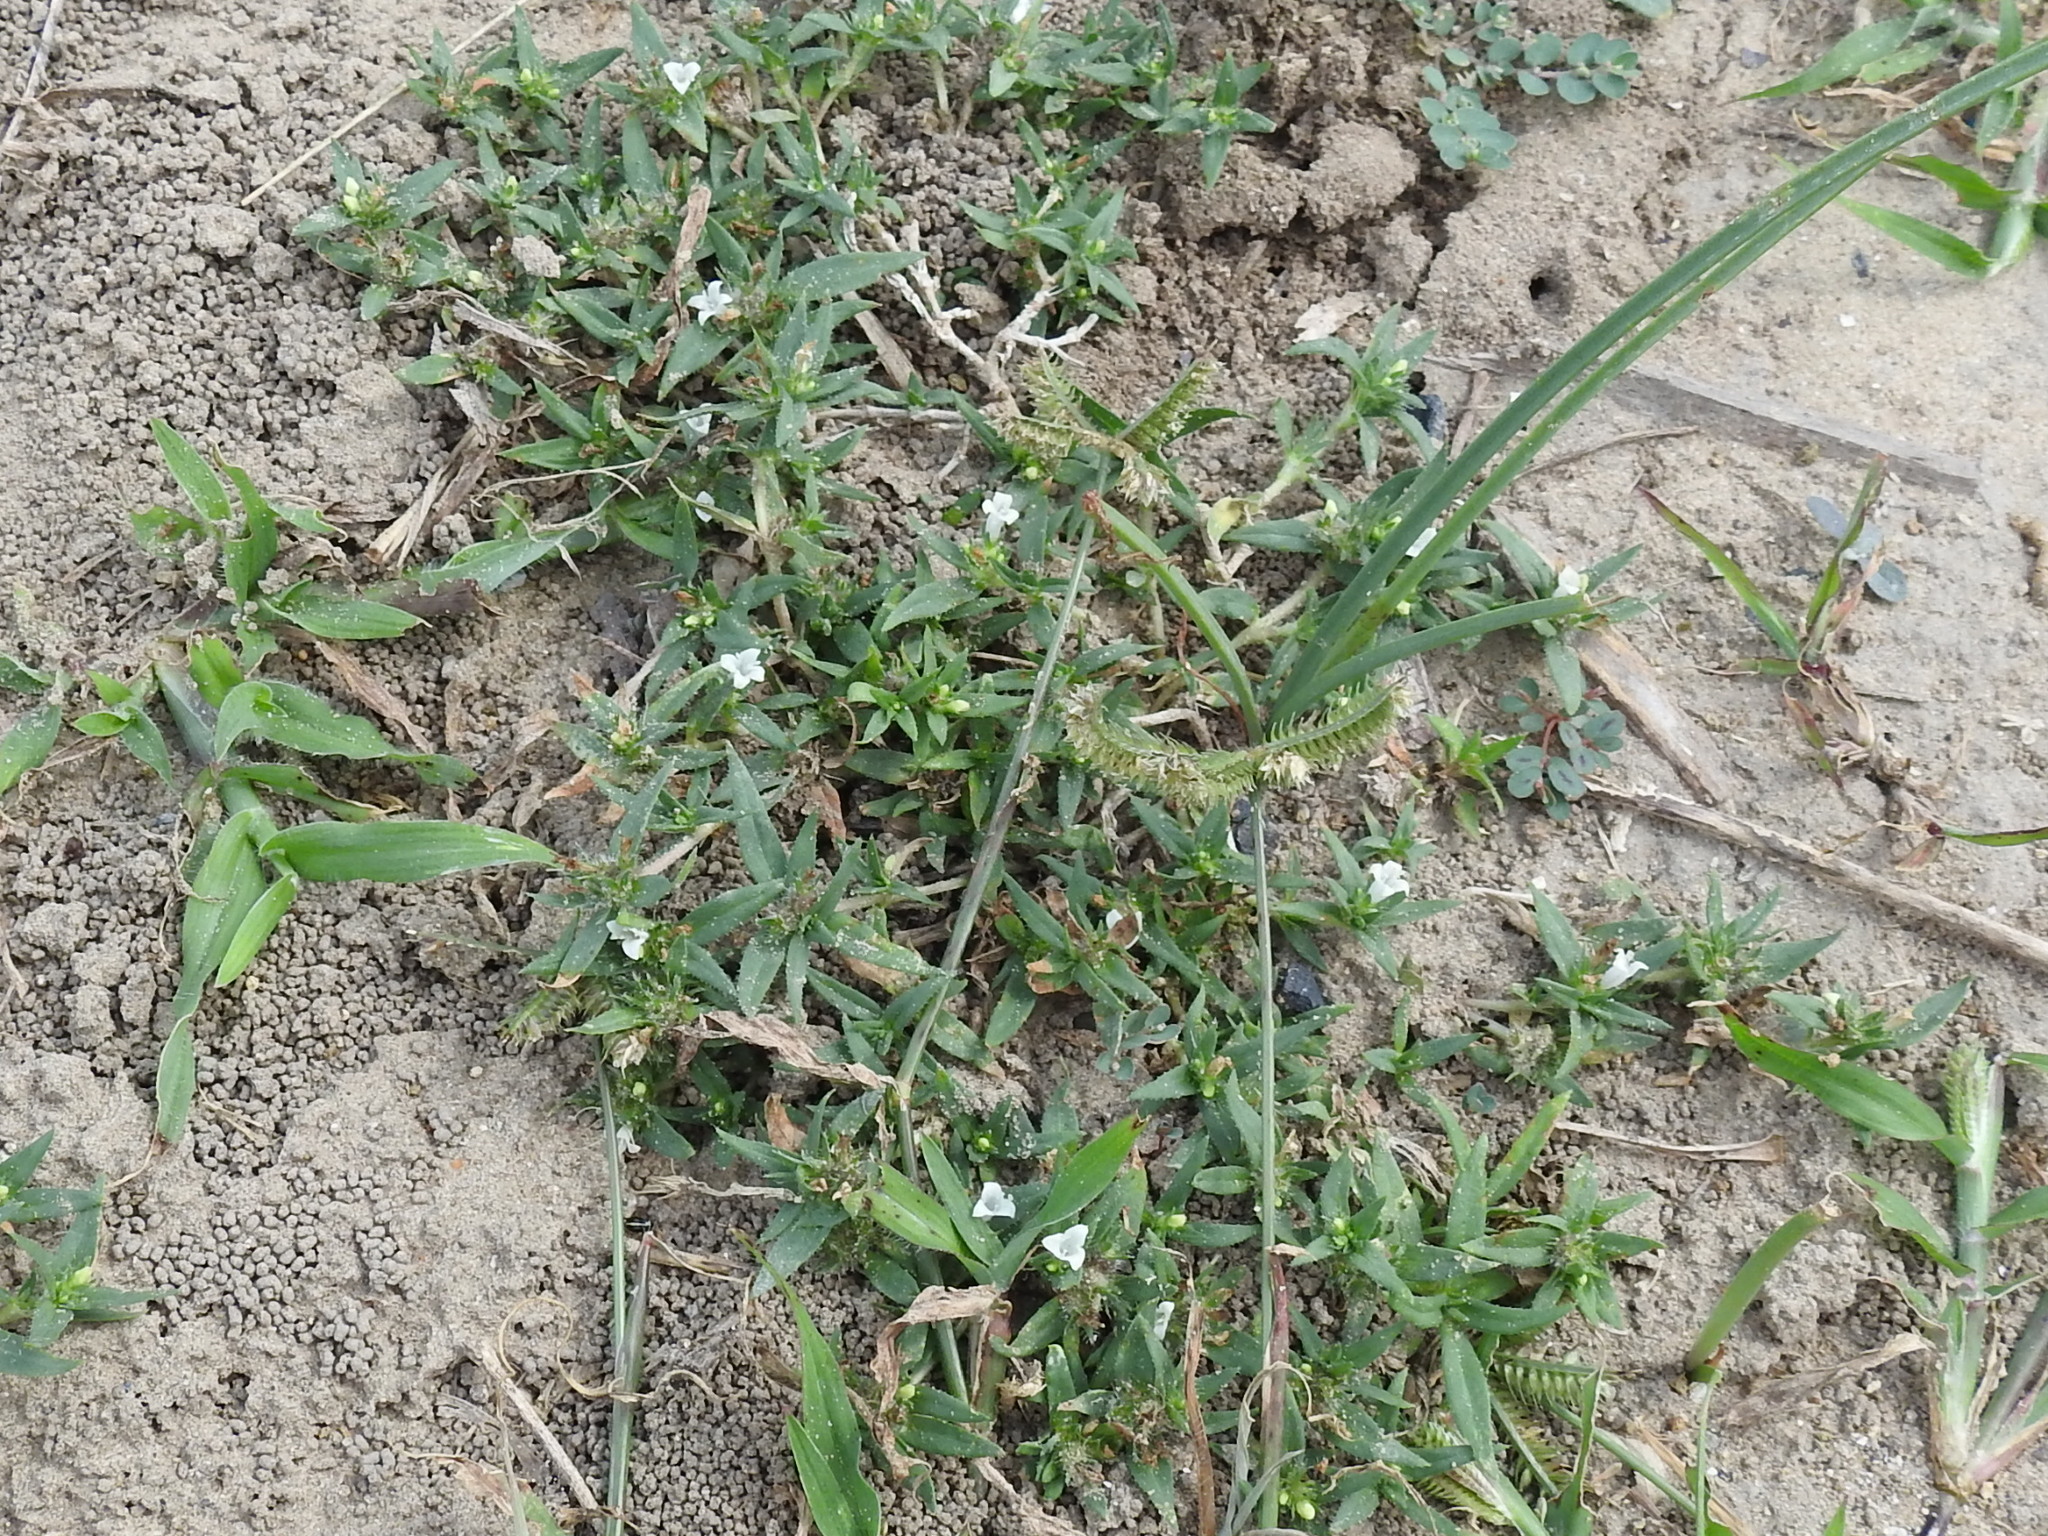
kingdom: Plantae
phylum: Tracheophyta
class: Magnoliopsida
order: Gentianales
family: Rubiaceae
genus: Richardia
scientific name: Richardia tricocca
